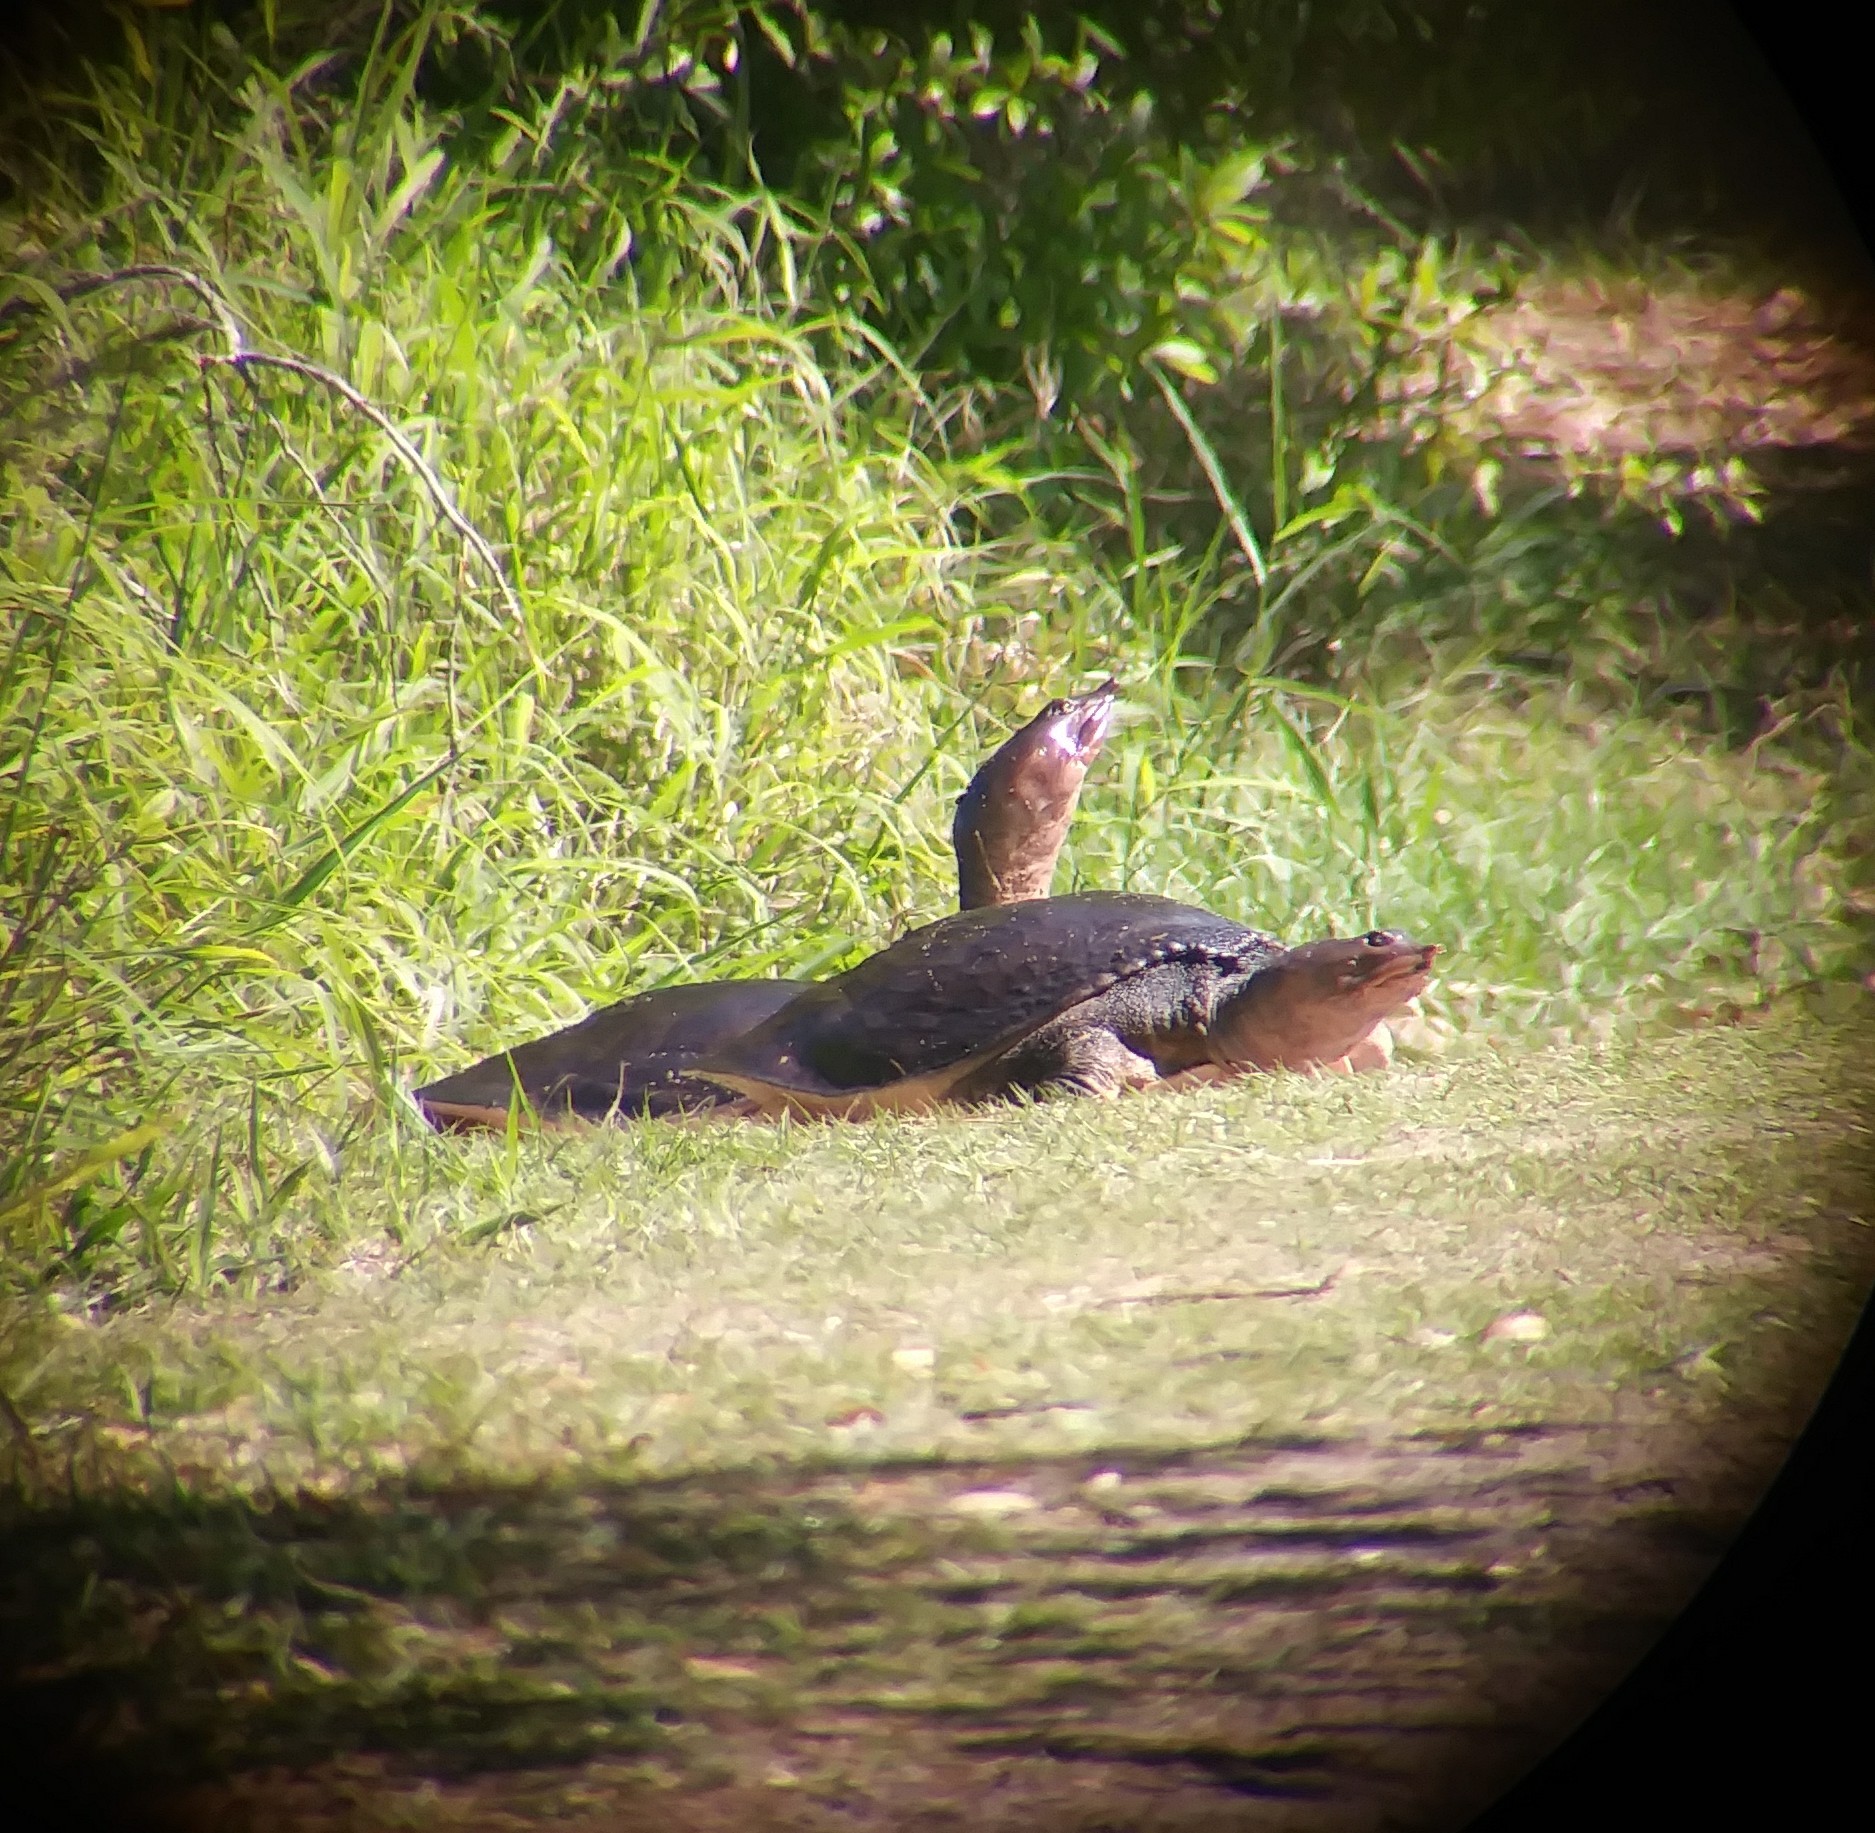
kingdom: Animalia
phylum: Chordata
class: Testudines
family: Trionychidae
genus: Apalone
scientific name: Apalone ferox
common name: Florida softshell turtle
